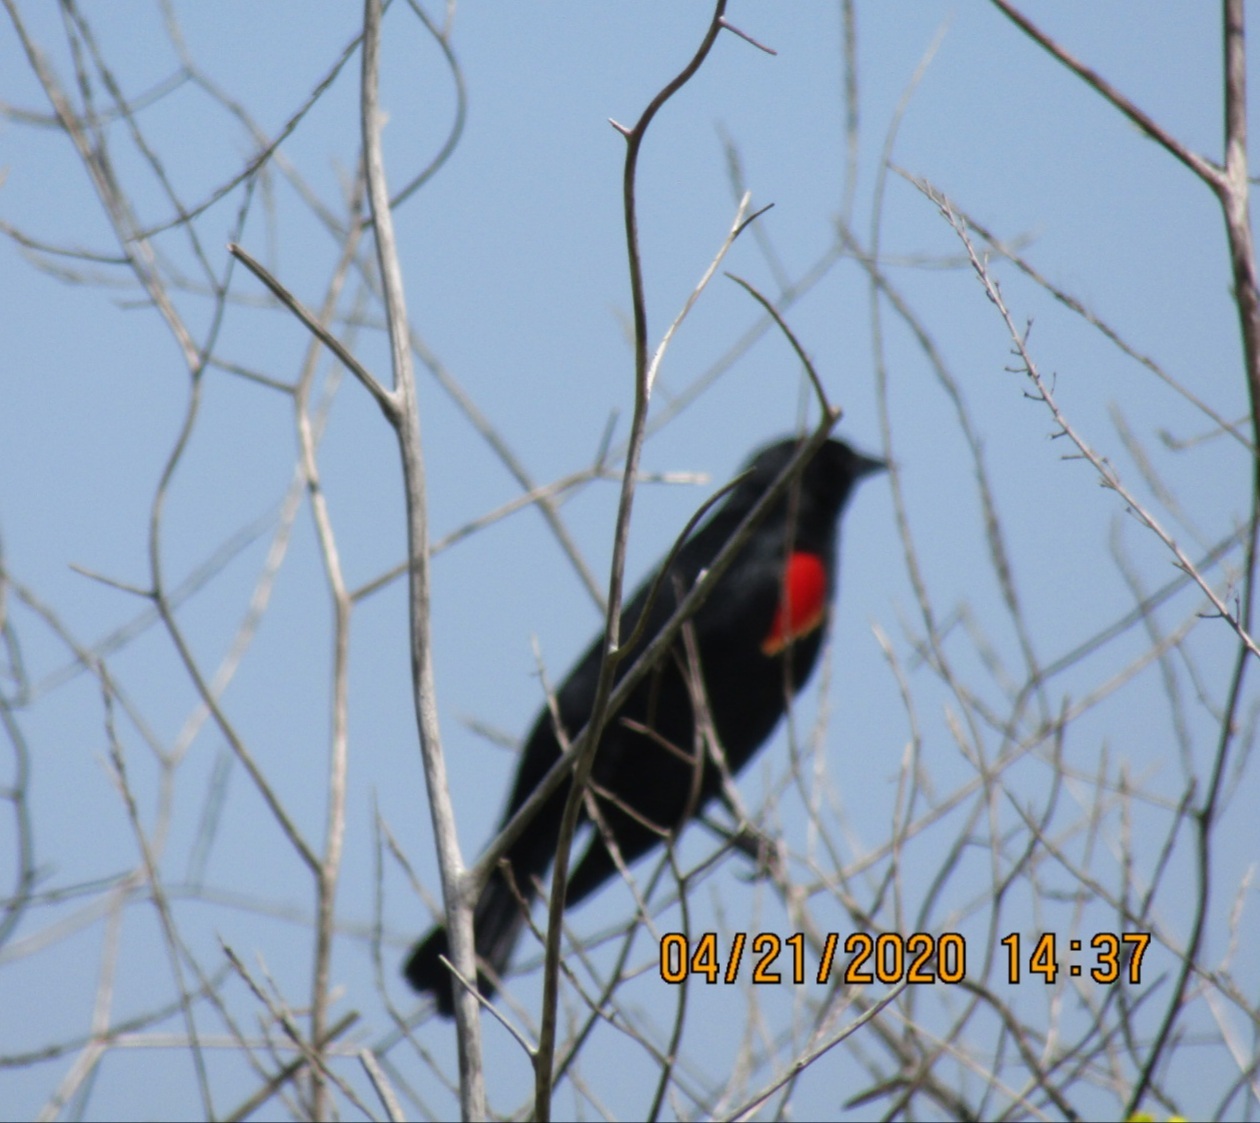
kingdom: Animalia
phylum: Chordata
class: Aves
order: Passeriformes
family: Icteridae
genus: Agelaius
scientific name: Agelaius phoeniceus
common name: Red-winged blackbird
